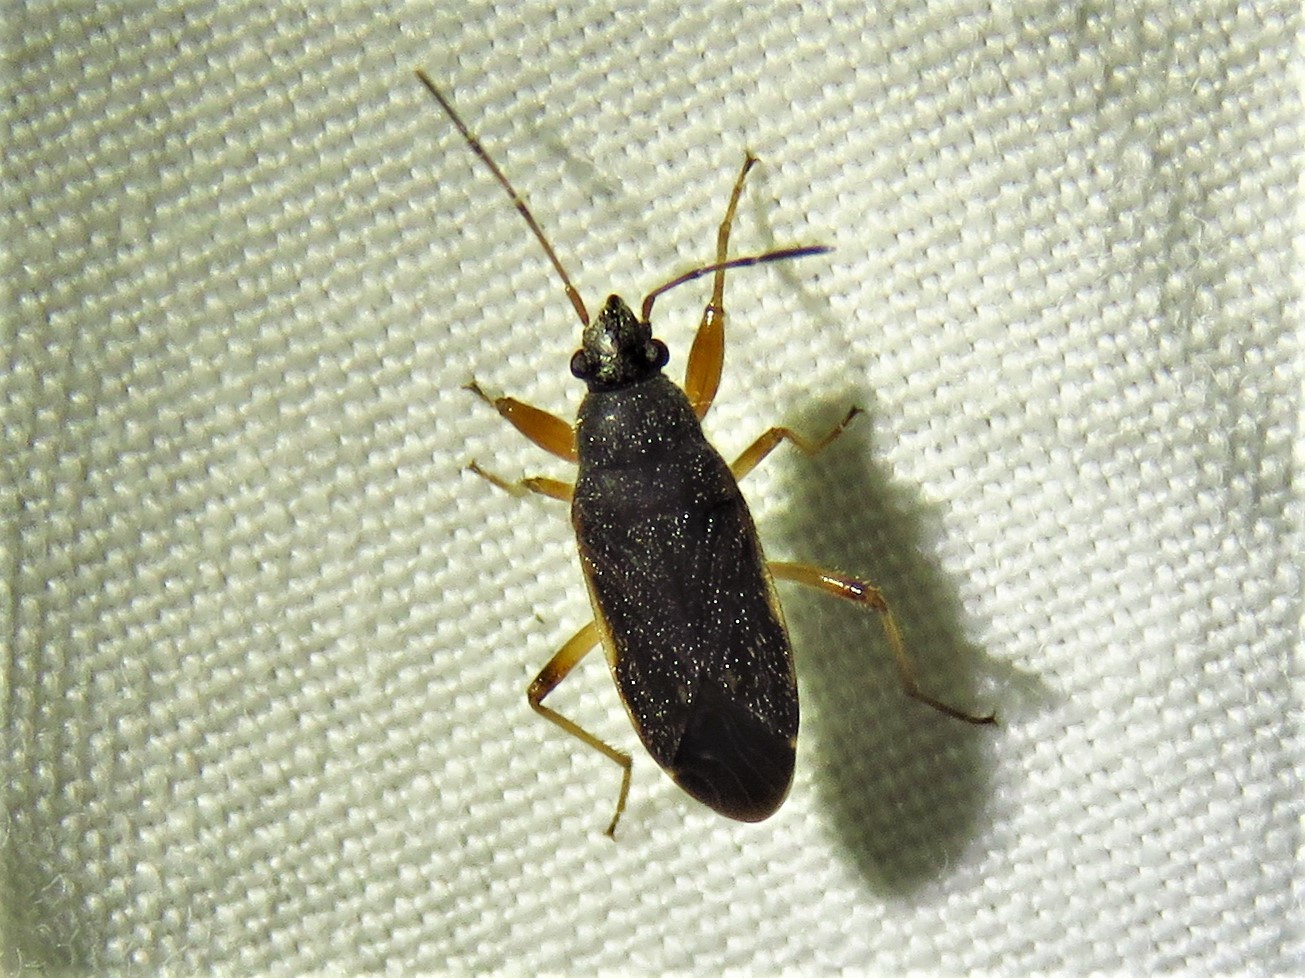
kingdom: Animalia
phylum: Arthropoda
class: Insecta
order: Hemiptera
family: Rhyparochromidae
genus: Perigenes
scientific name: Perigenes similis
